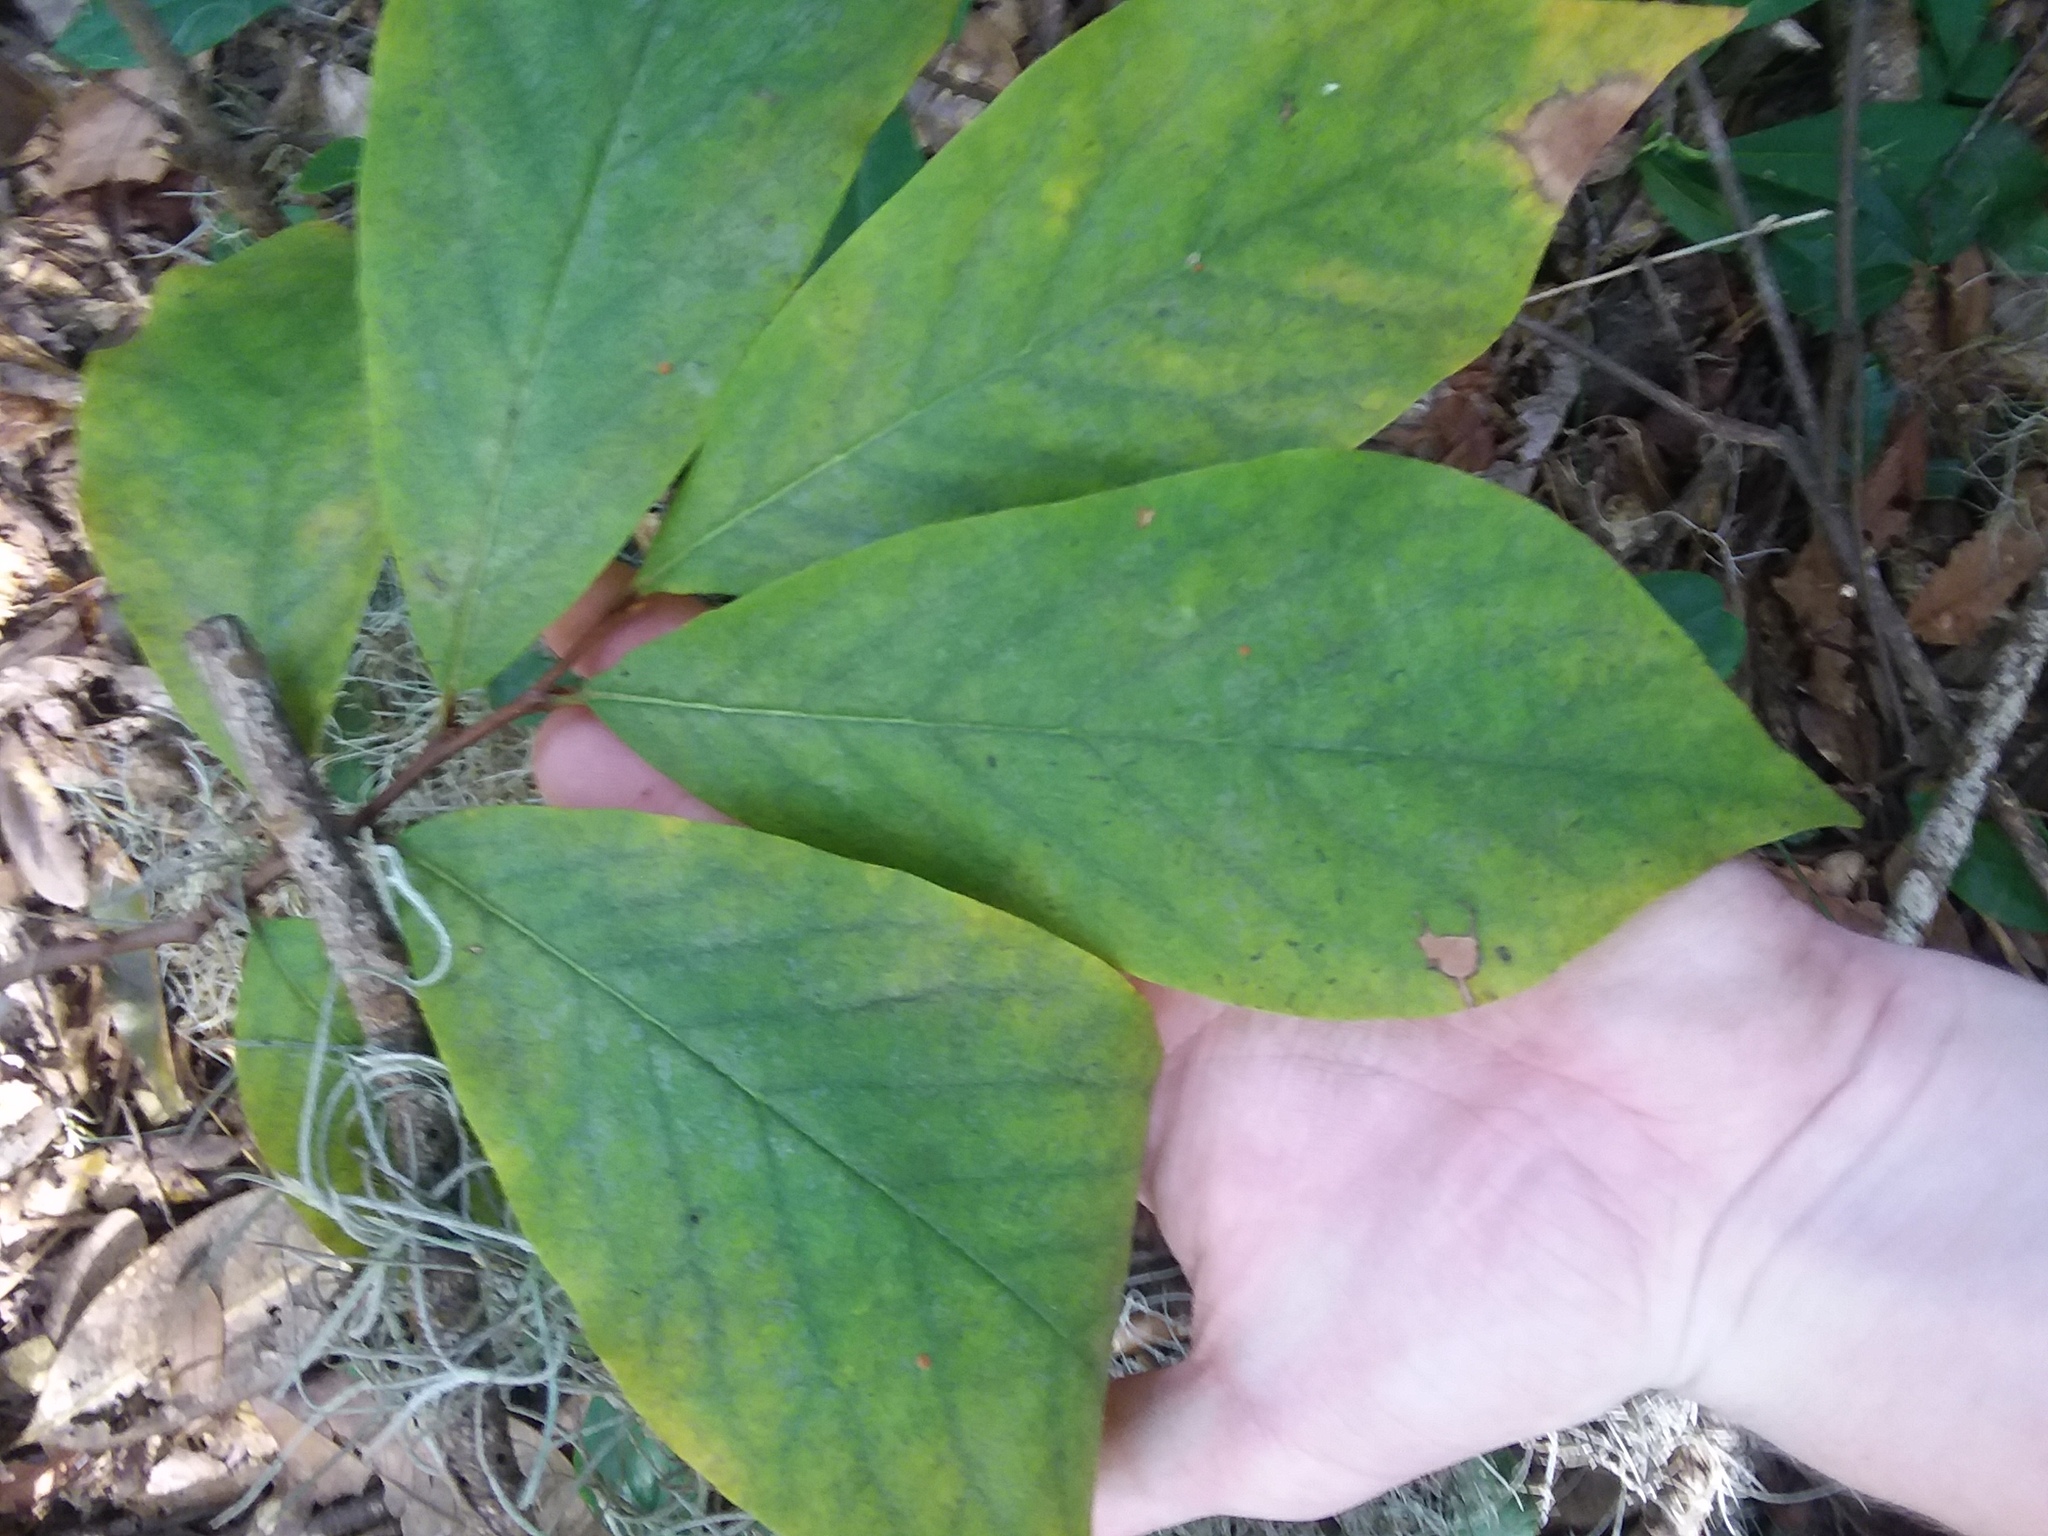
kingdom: Plantae
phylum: Tracheophyta
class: Magnoliopsida
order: Magnoliales
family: Annonaceae
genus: Asimina
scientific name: Asimina parviflora
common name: Dwarf pawpaw
